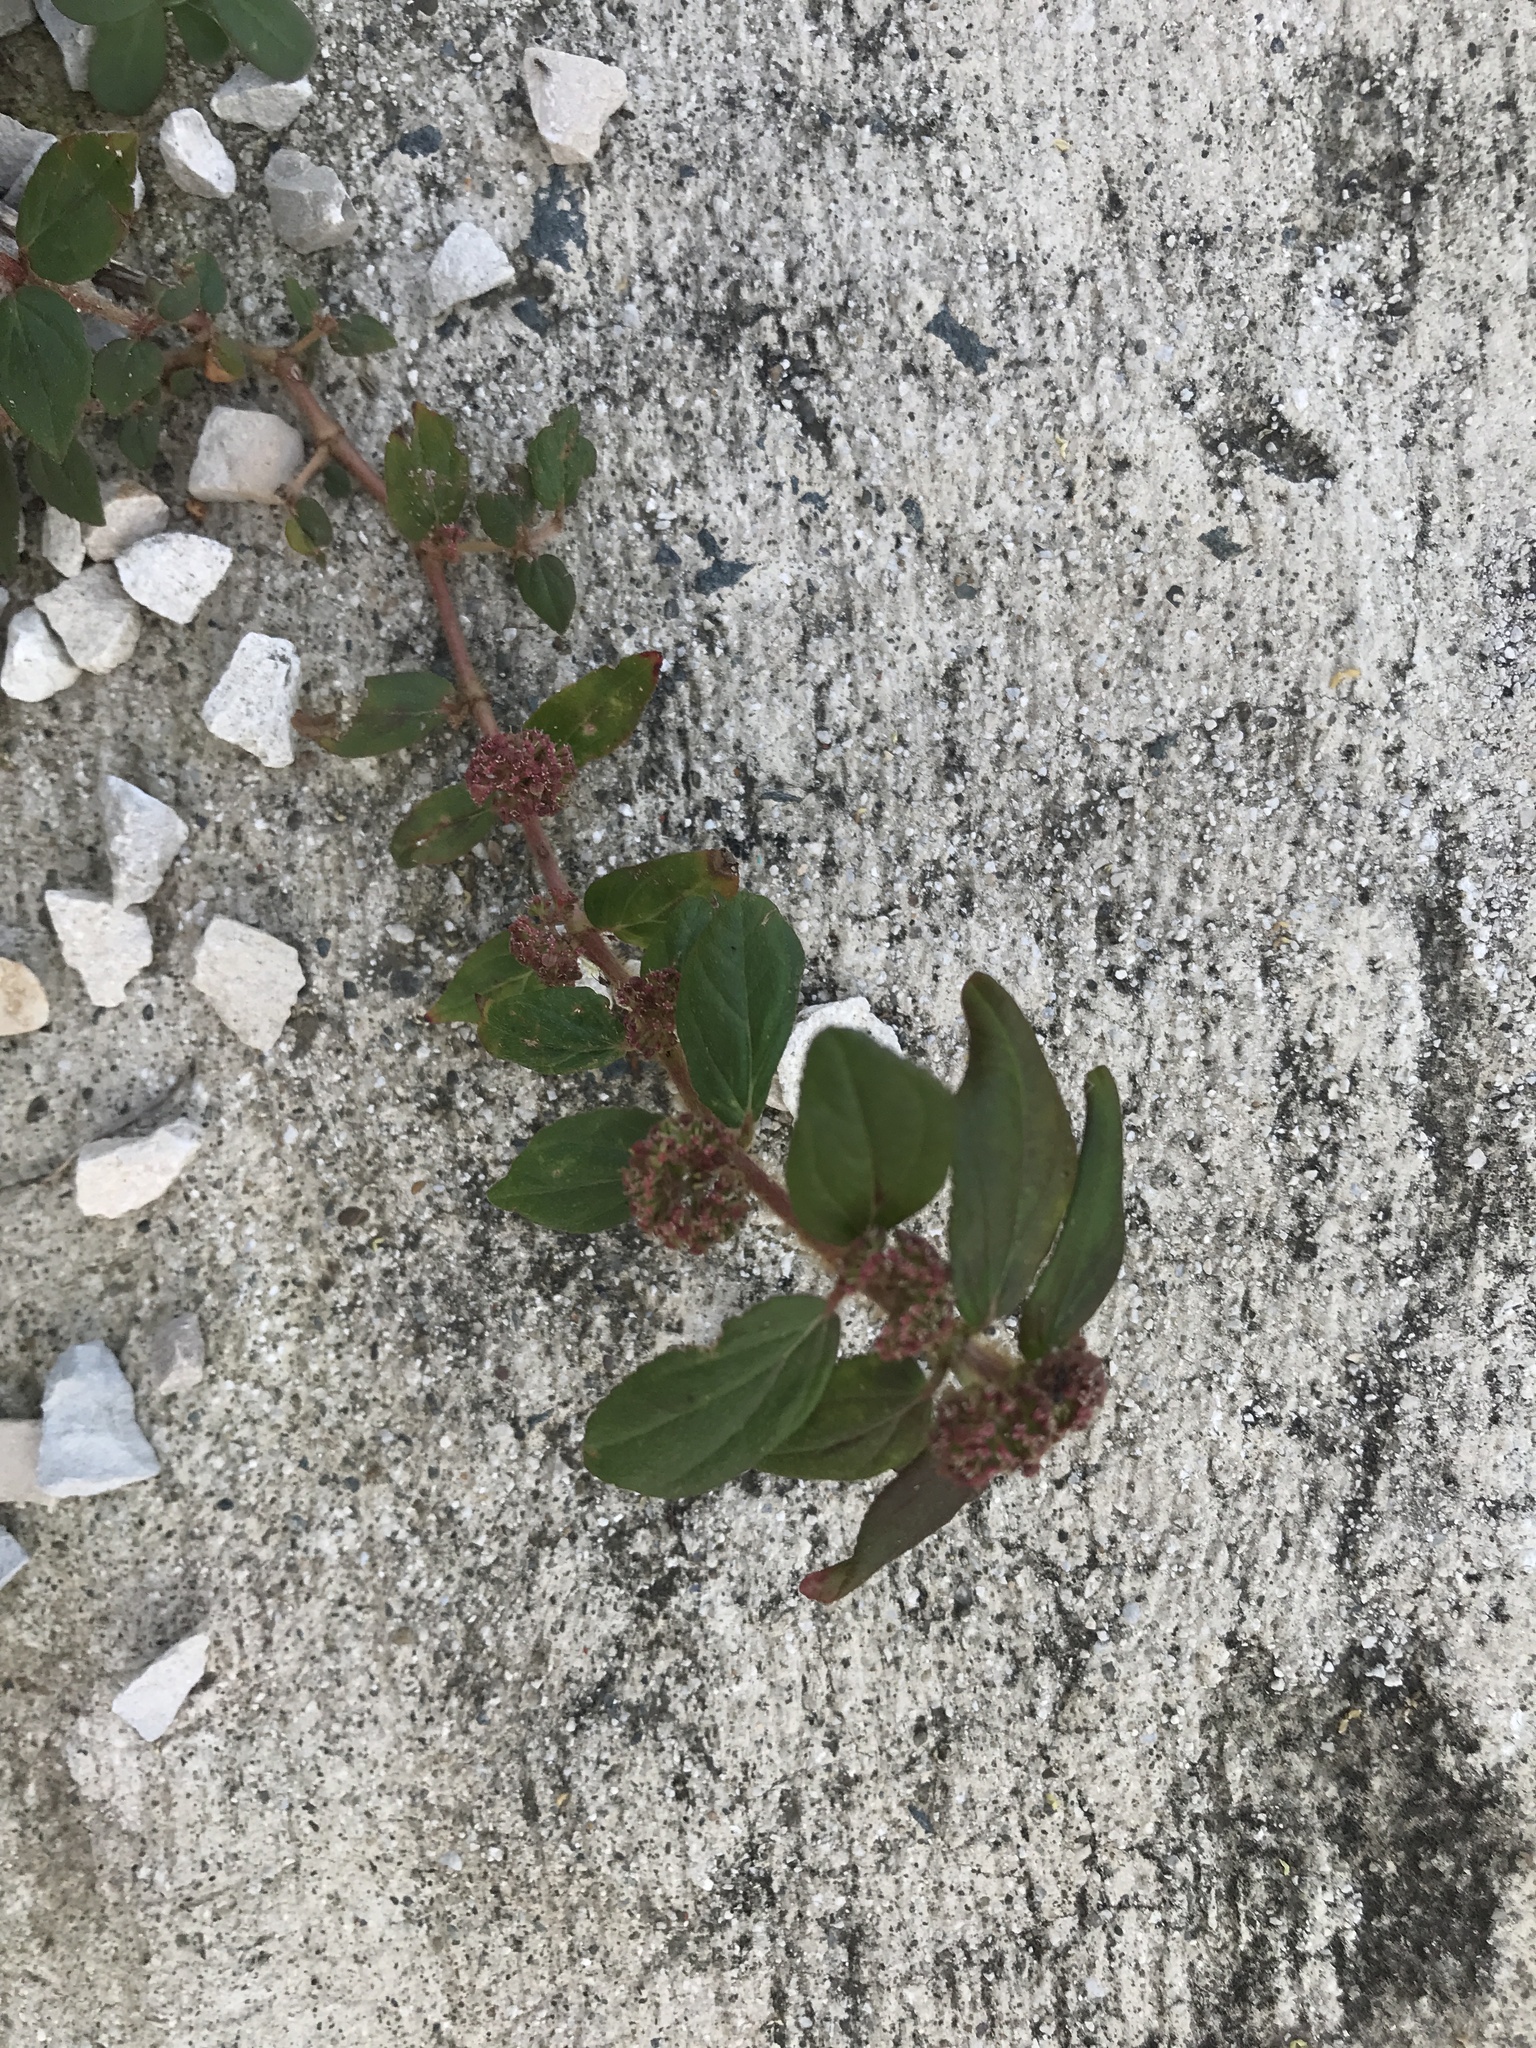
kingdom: Plantae
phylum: Tracheophyta
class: Magnoliopsida
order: Malpighiales
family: Euphorbiaceae
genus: Euphorbia
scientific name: Euphorbia hirta
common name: Pillpod sandmat
